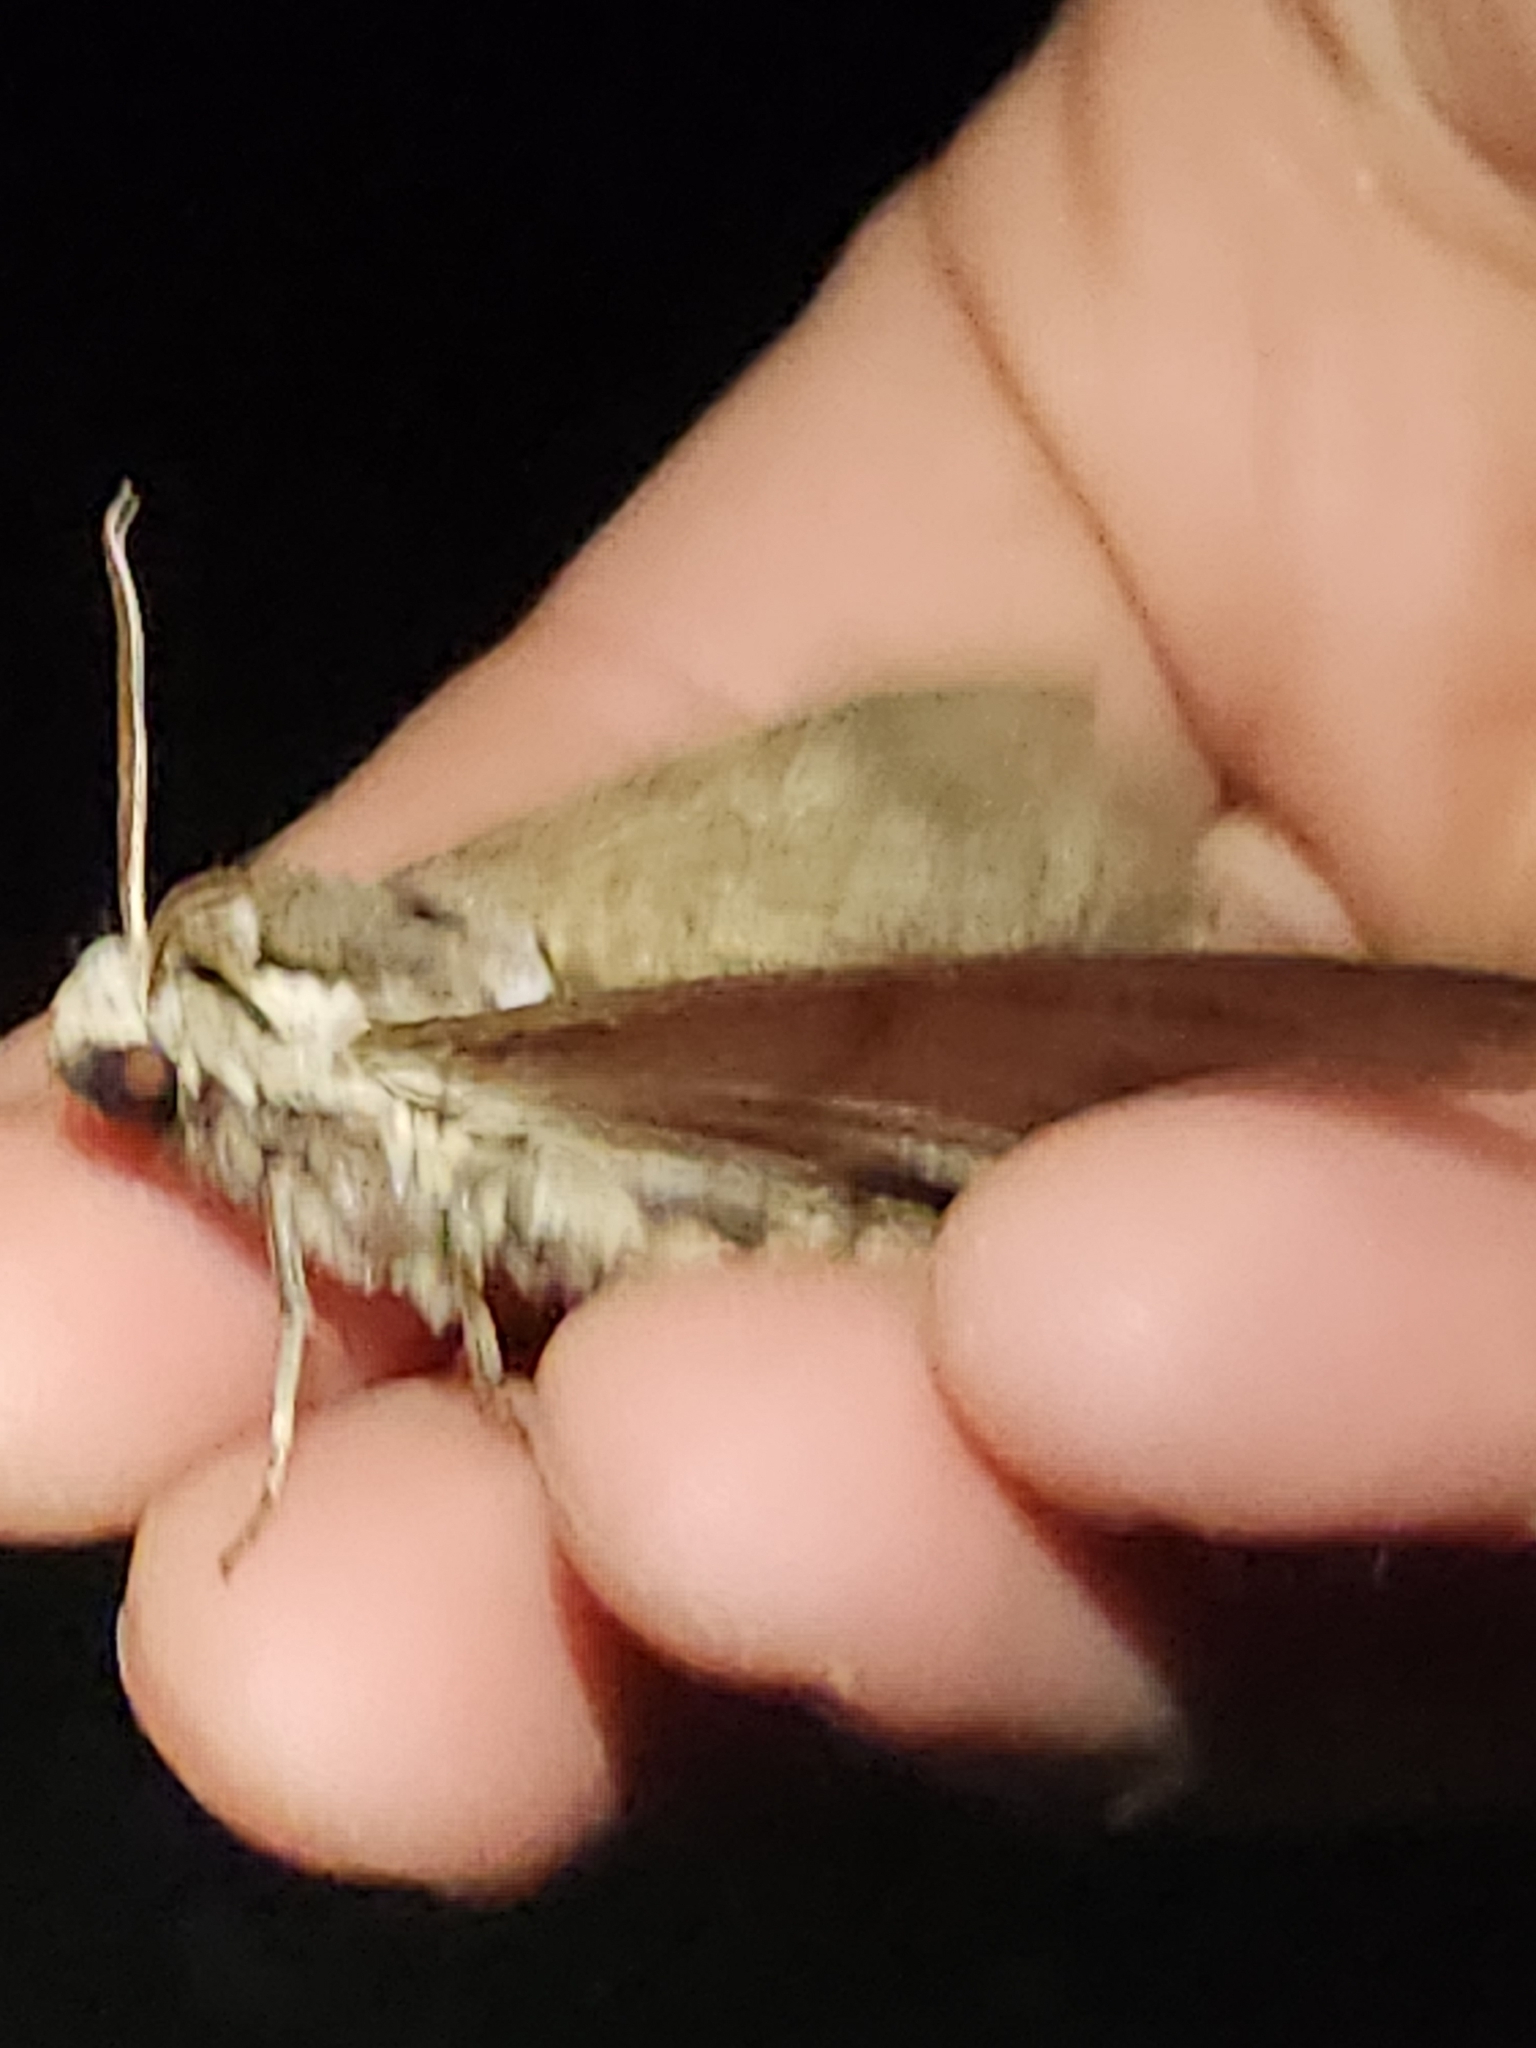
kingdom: Animalia
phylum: Arthropoda
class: Insecta
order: Lepidoptera
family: Sphingidae
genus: Ceratomia
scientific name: Ceratomia catalpae
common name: Catalpa hornworm
